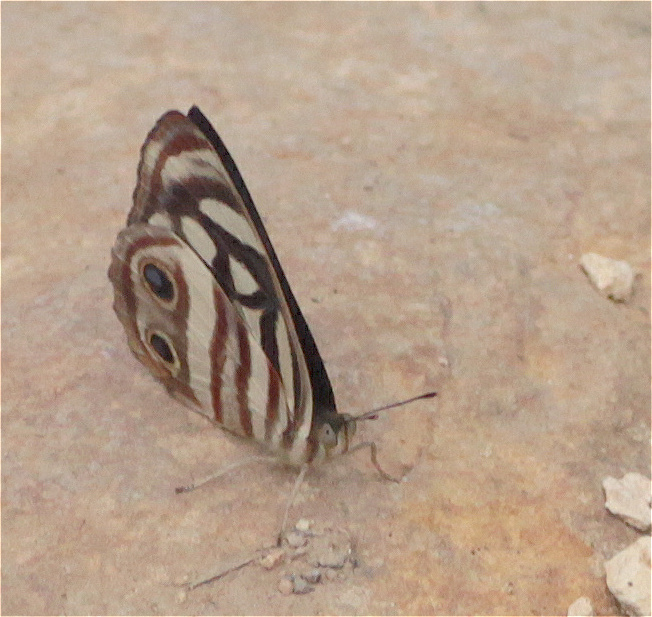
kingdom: Animalia
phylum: Arthropoda
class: Insecta
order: Lepidoptera
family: Nymphalidae
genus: Dynamine
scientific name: Dynamine mylitta
